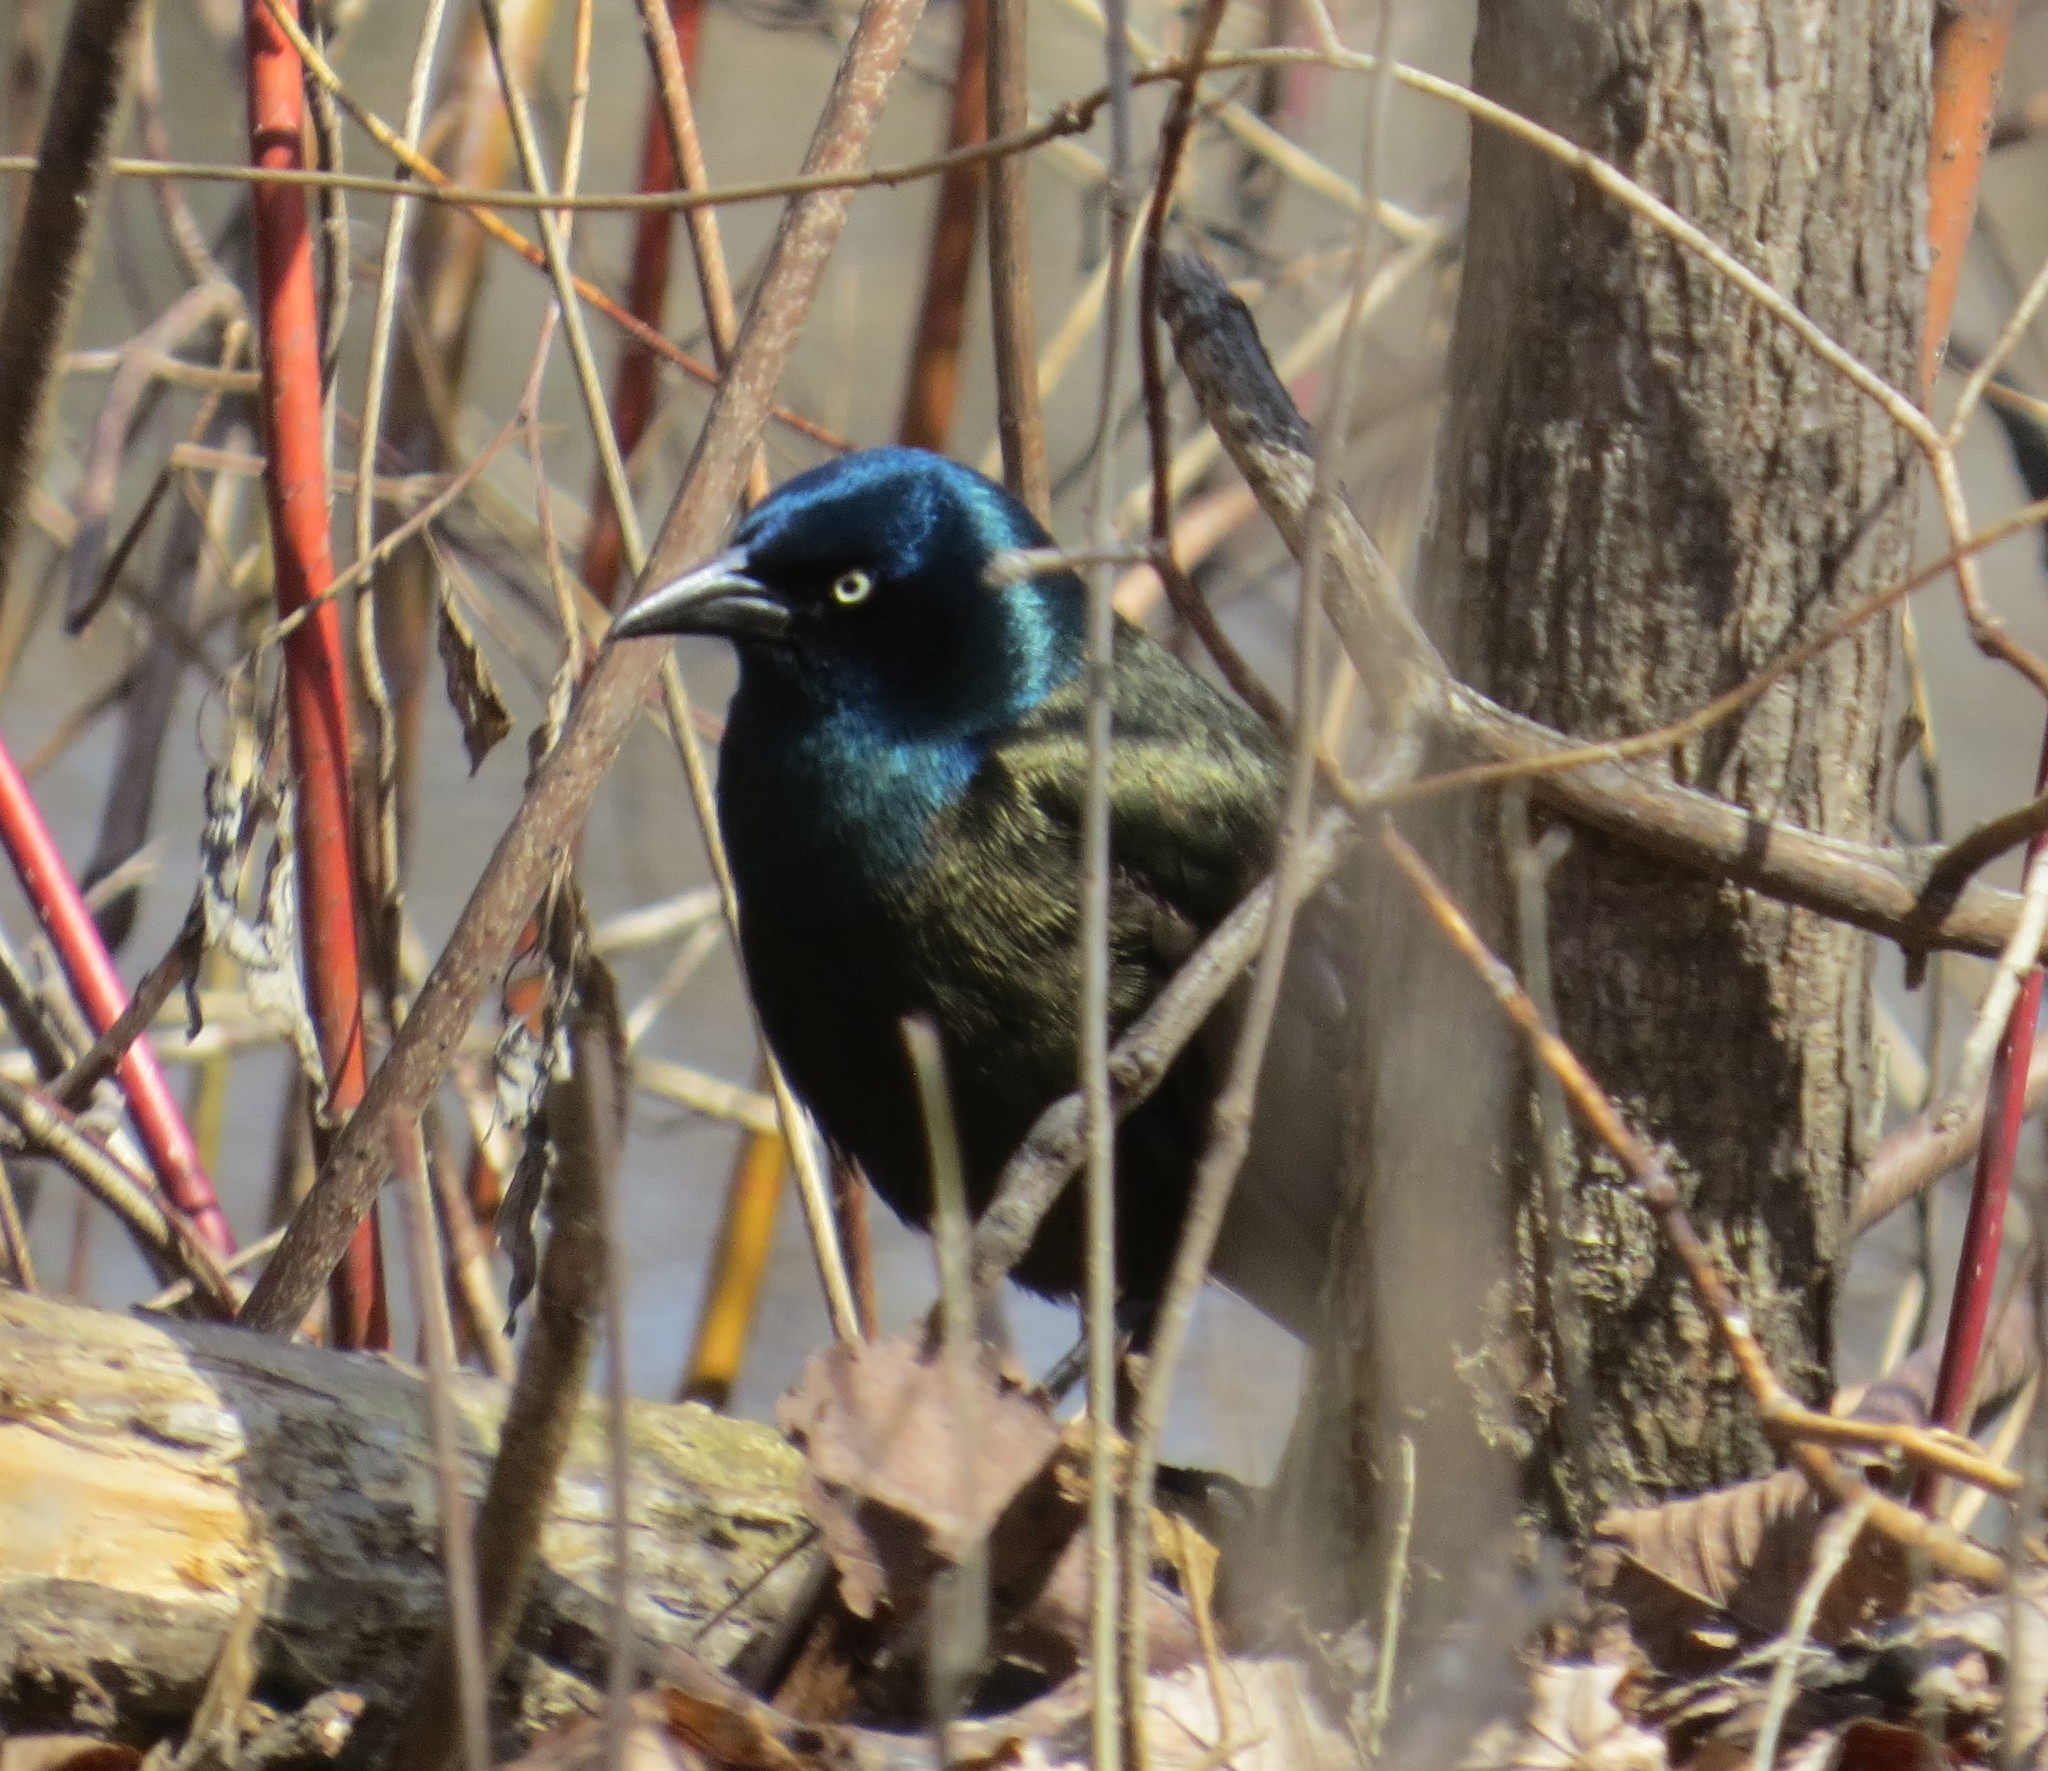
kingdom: Animalia
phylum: Chordata
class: Aves
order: Passeriformes
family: Icteridae
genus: Quiscalus
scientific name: Quiscalus quiscula
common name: Common grackle
